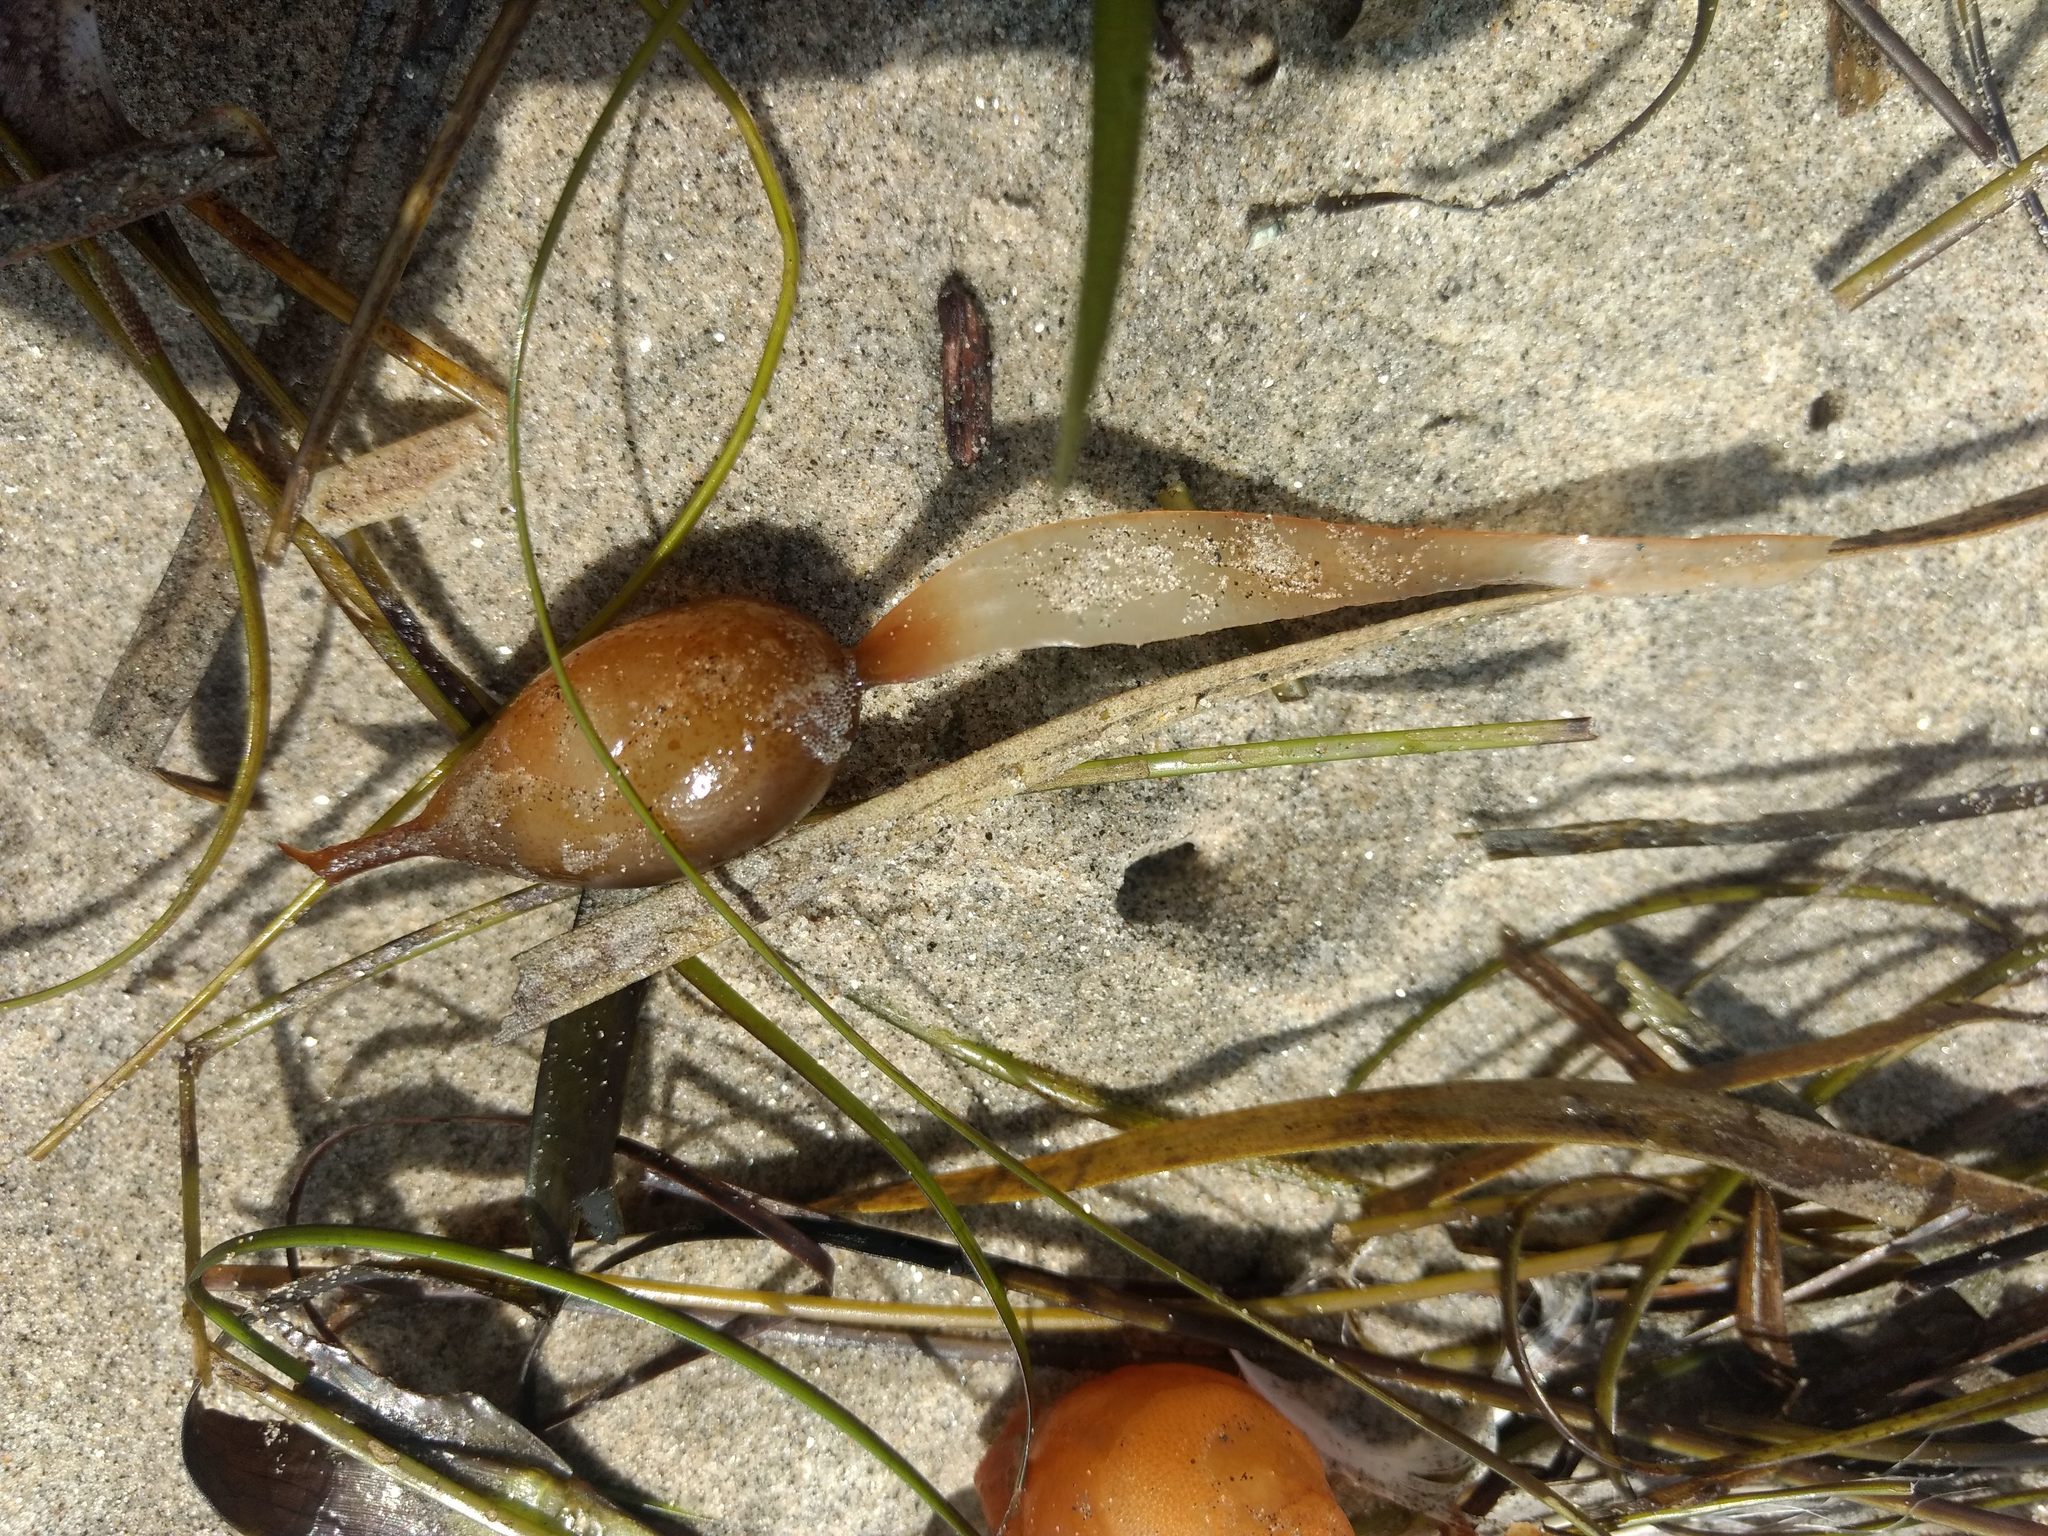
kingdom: Chromista
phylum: Ochrophyta
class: Phaeophyceae
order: Laminariales
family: Laminariaceae
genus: Macrocystis
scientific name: Macrocystis pyrifera
